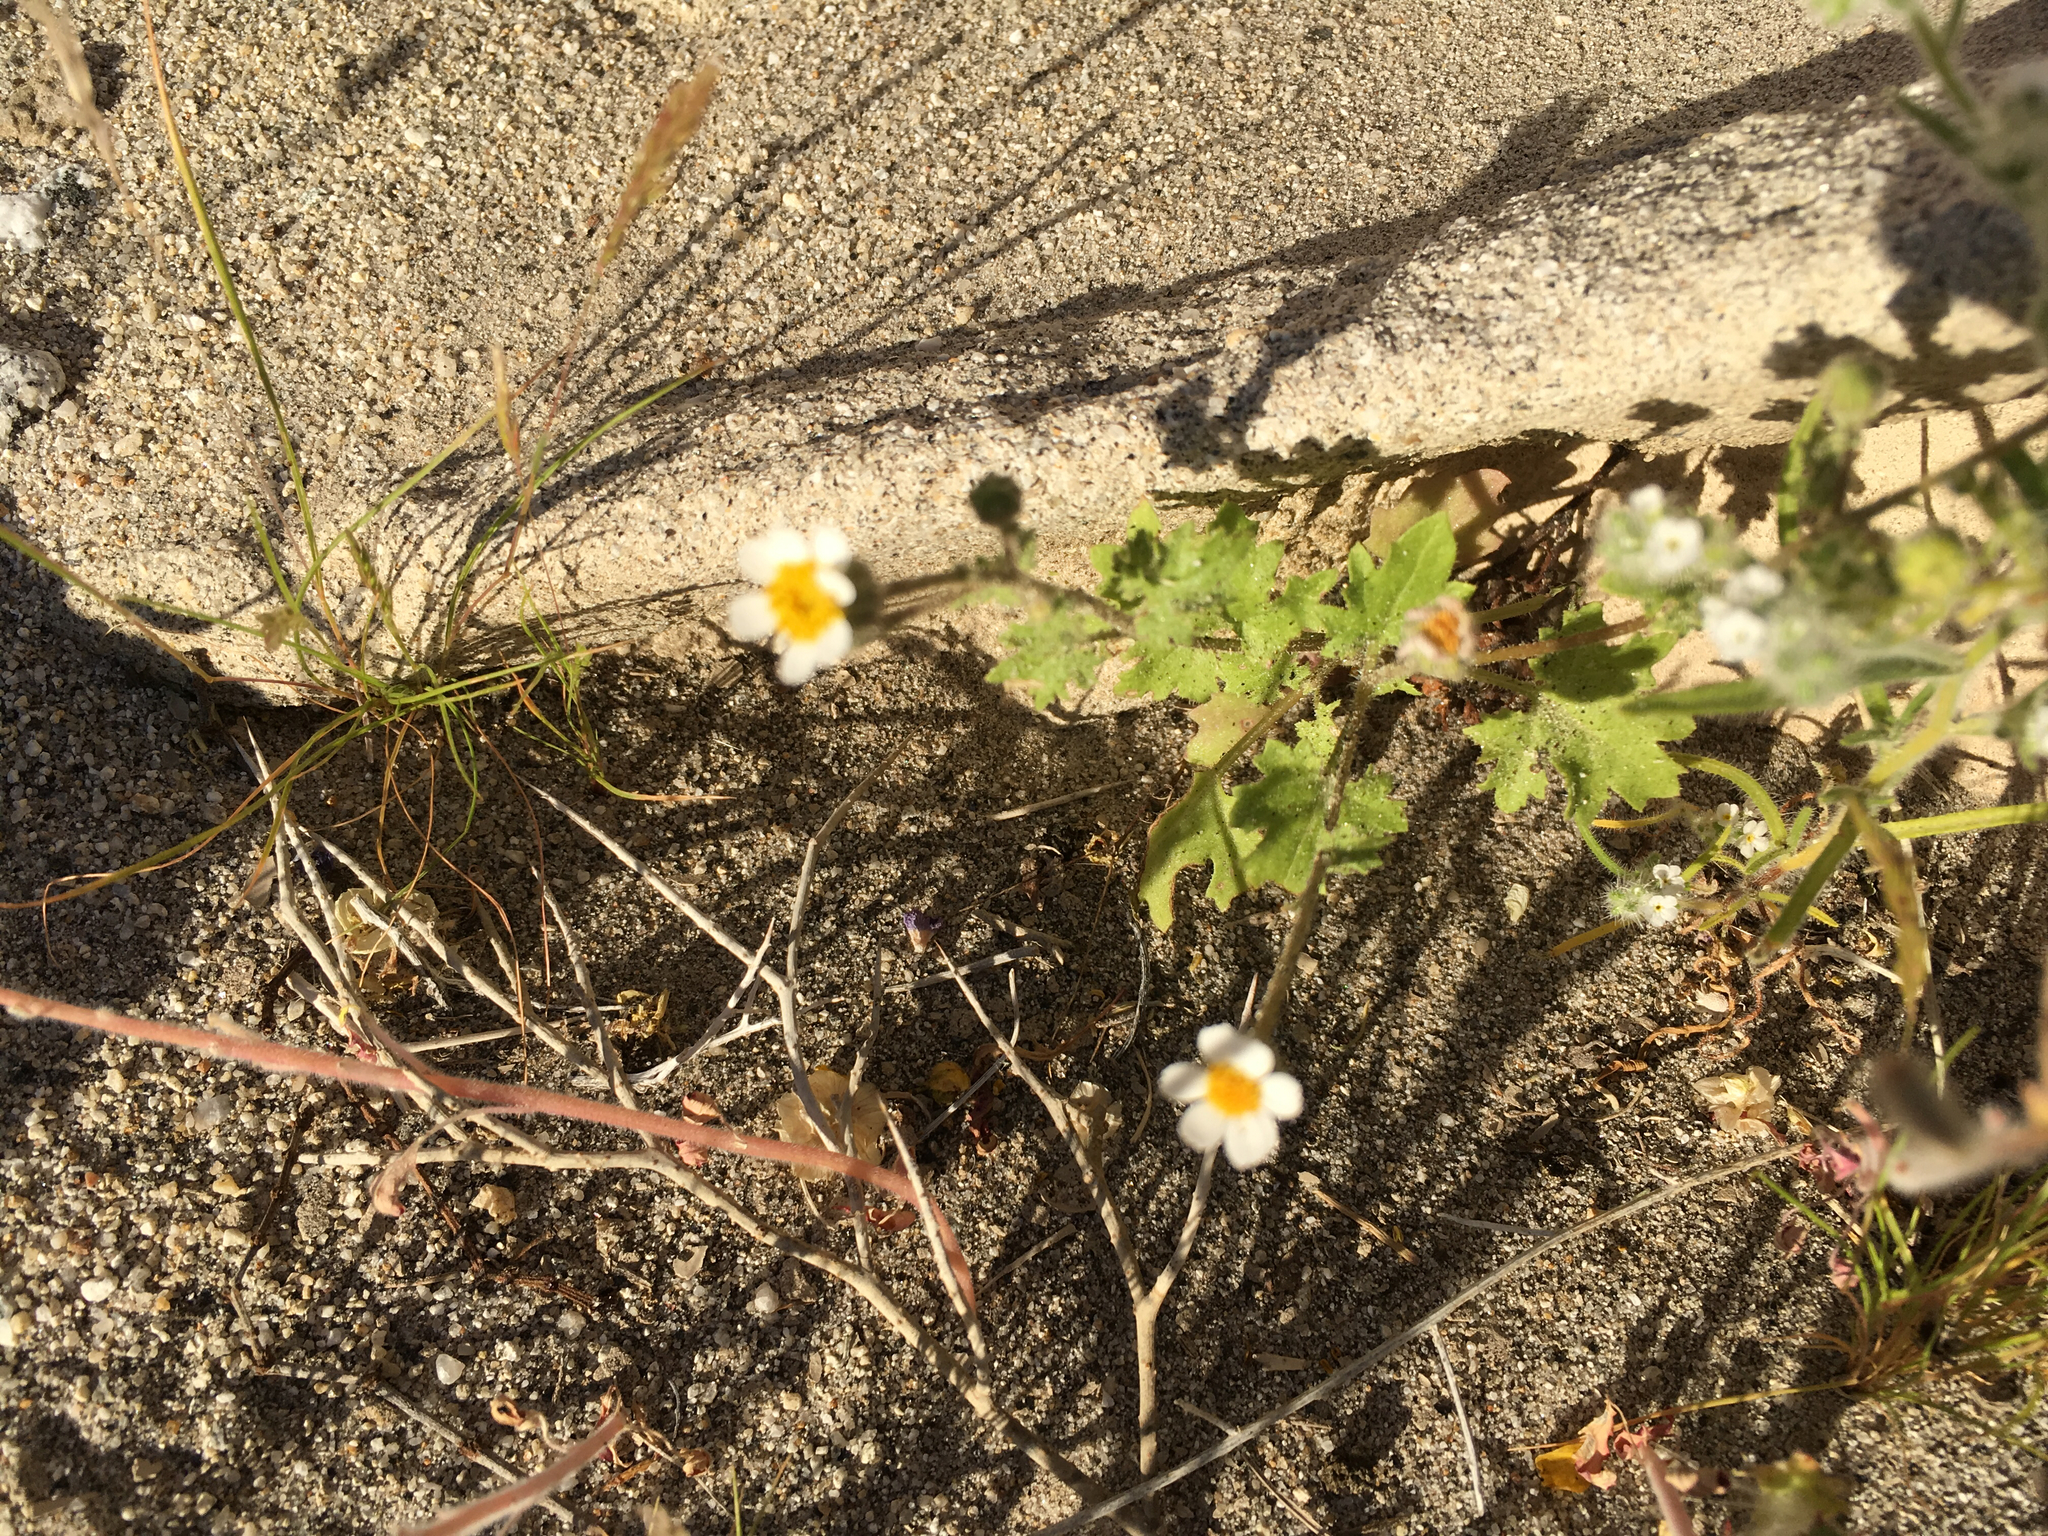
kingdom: Plantae
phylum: Tracheophyta
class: Magnoliopsida
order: Asterales
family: Asteraceae
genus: Laphamia
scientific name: Laphamia emoryi
